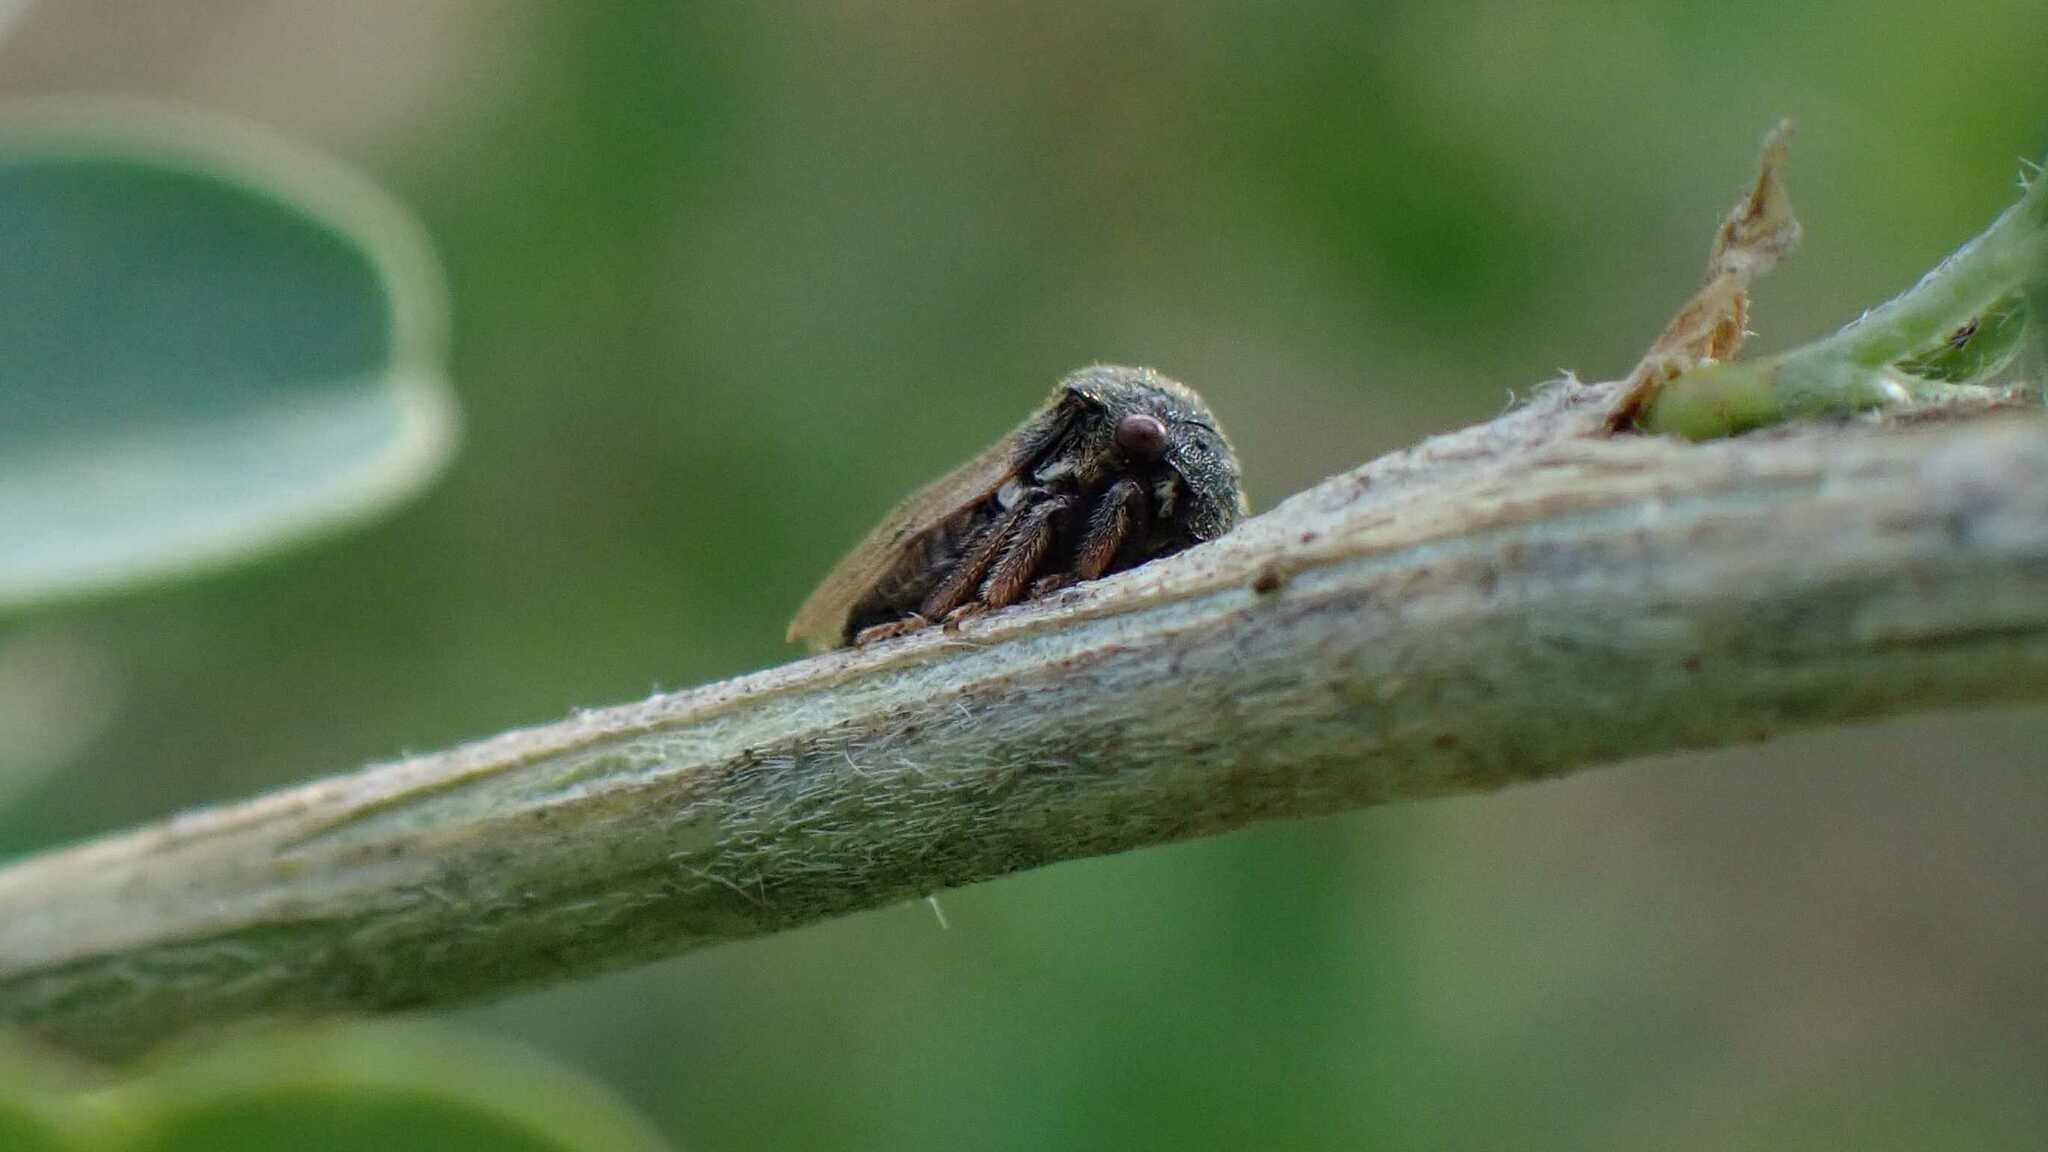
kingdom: Animalia
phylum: Arthropoda
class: Insecta
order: Hemiptera
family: Membracidae
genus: Gargara
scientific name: Gargara genistae
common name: Treehopper
